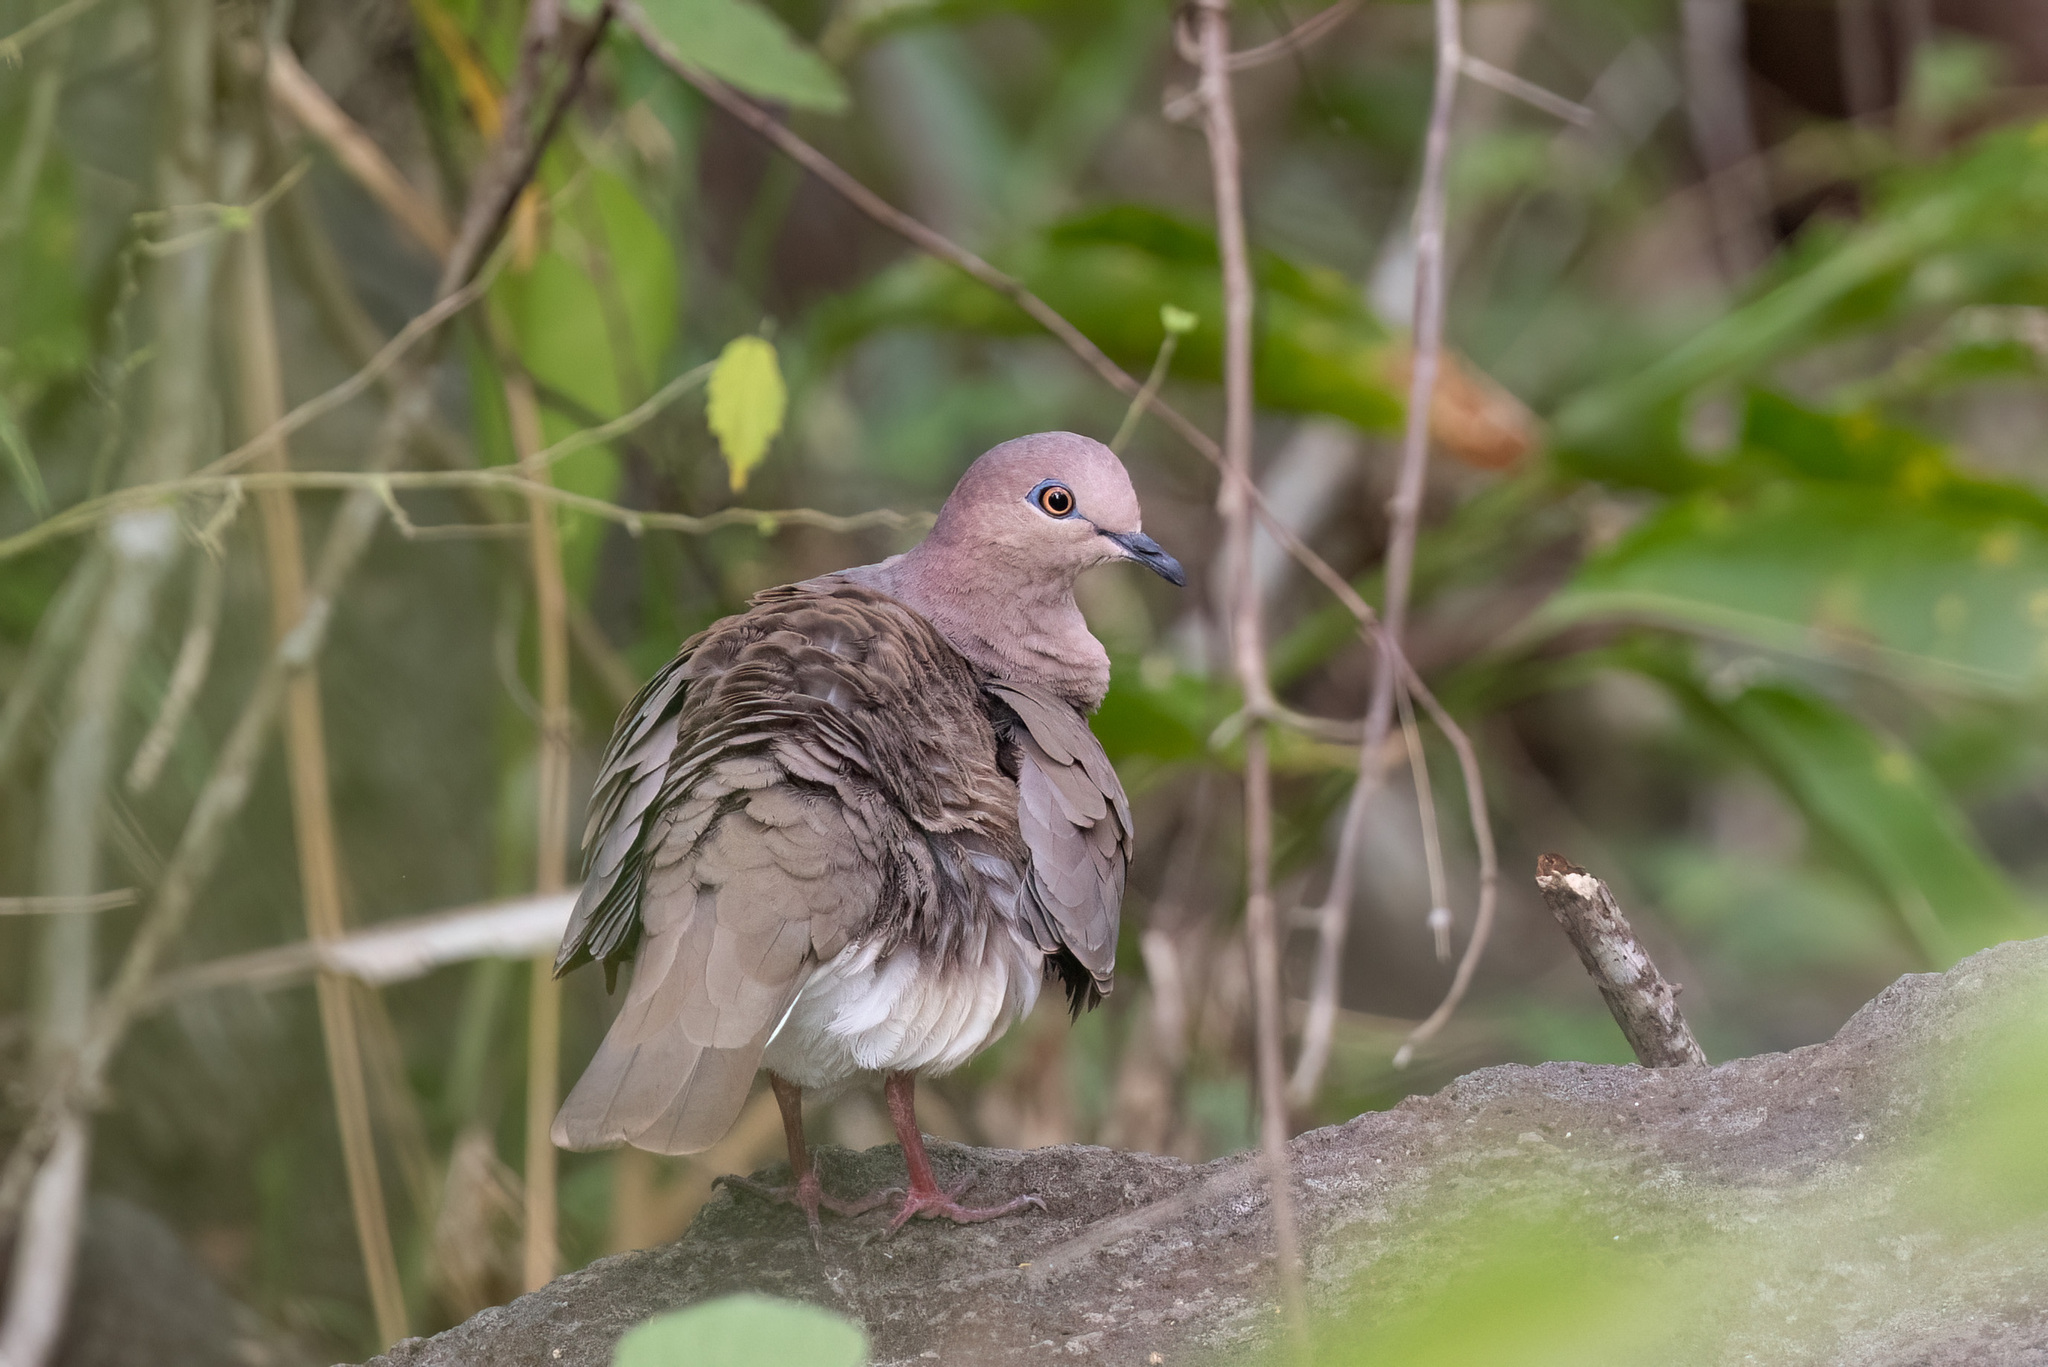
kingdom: Animalia
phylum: Chordata
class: Aves
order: Columbiformes
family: Columbidae
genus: Leptotila
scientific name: Leptotila verreauxi
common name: White-tipped dove
